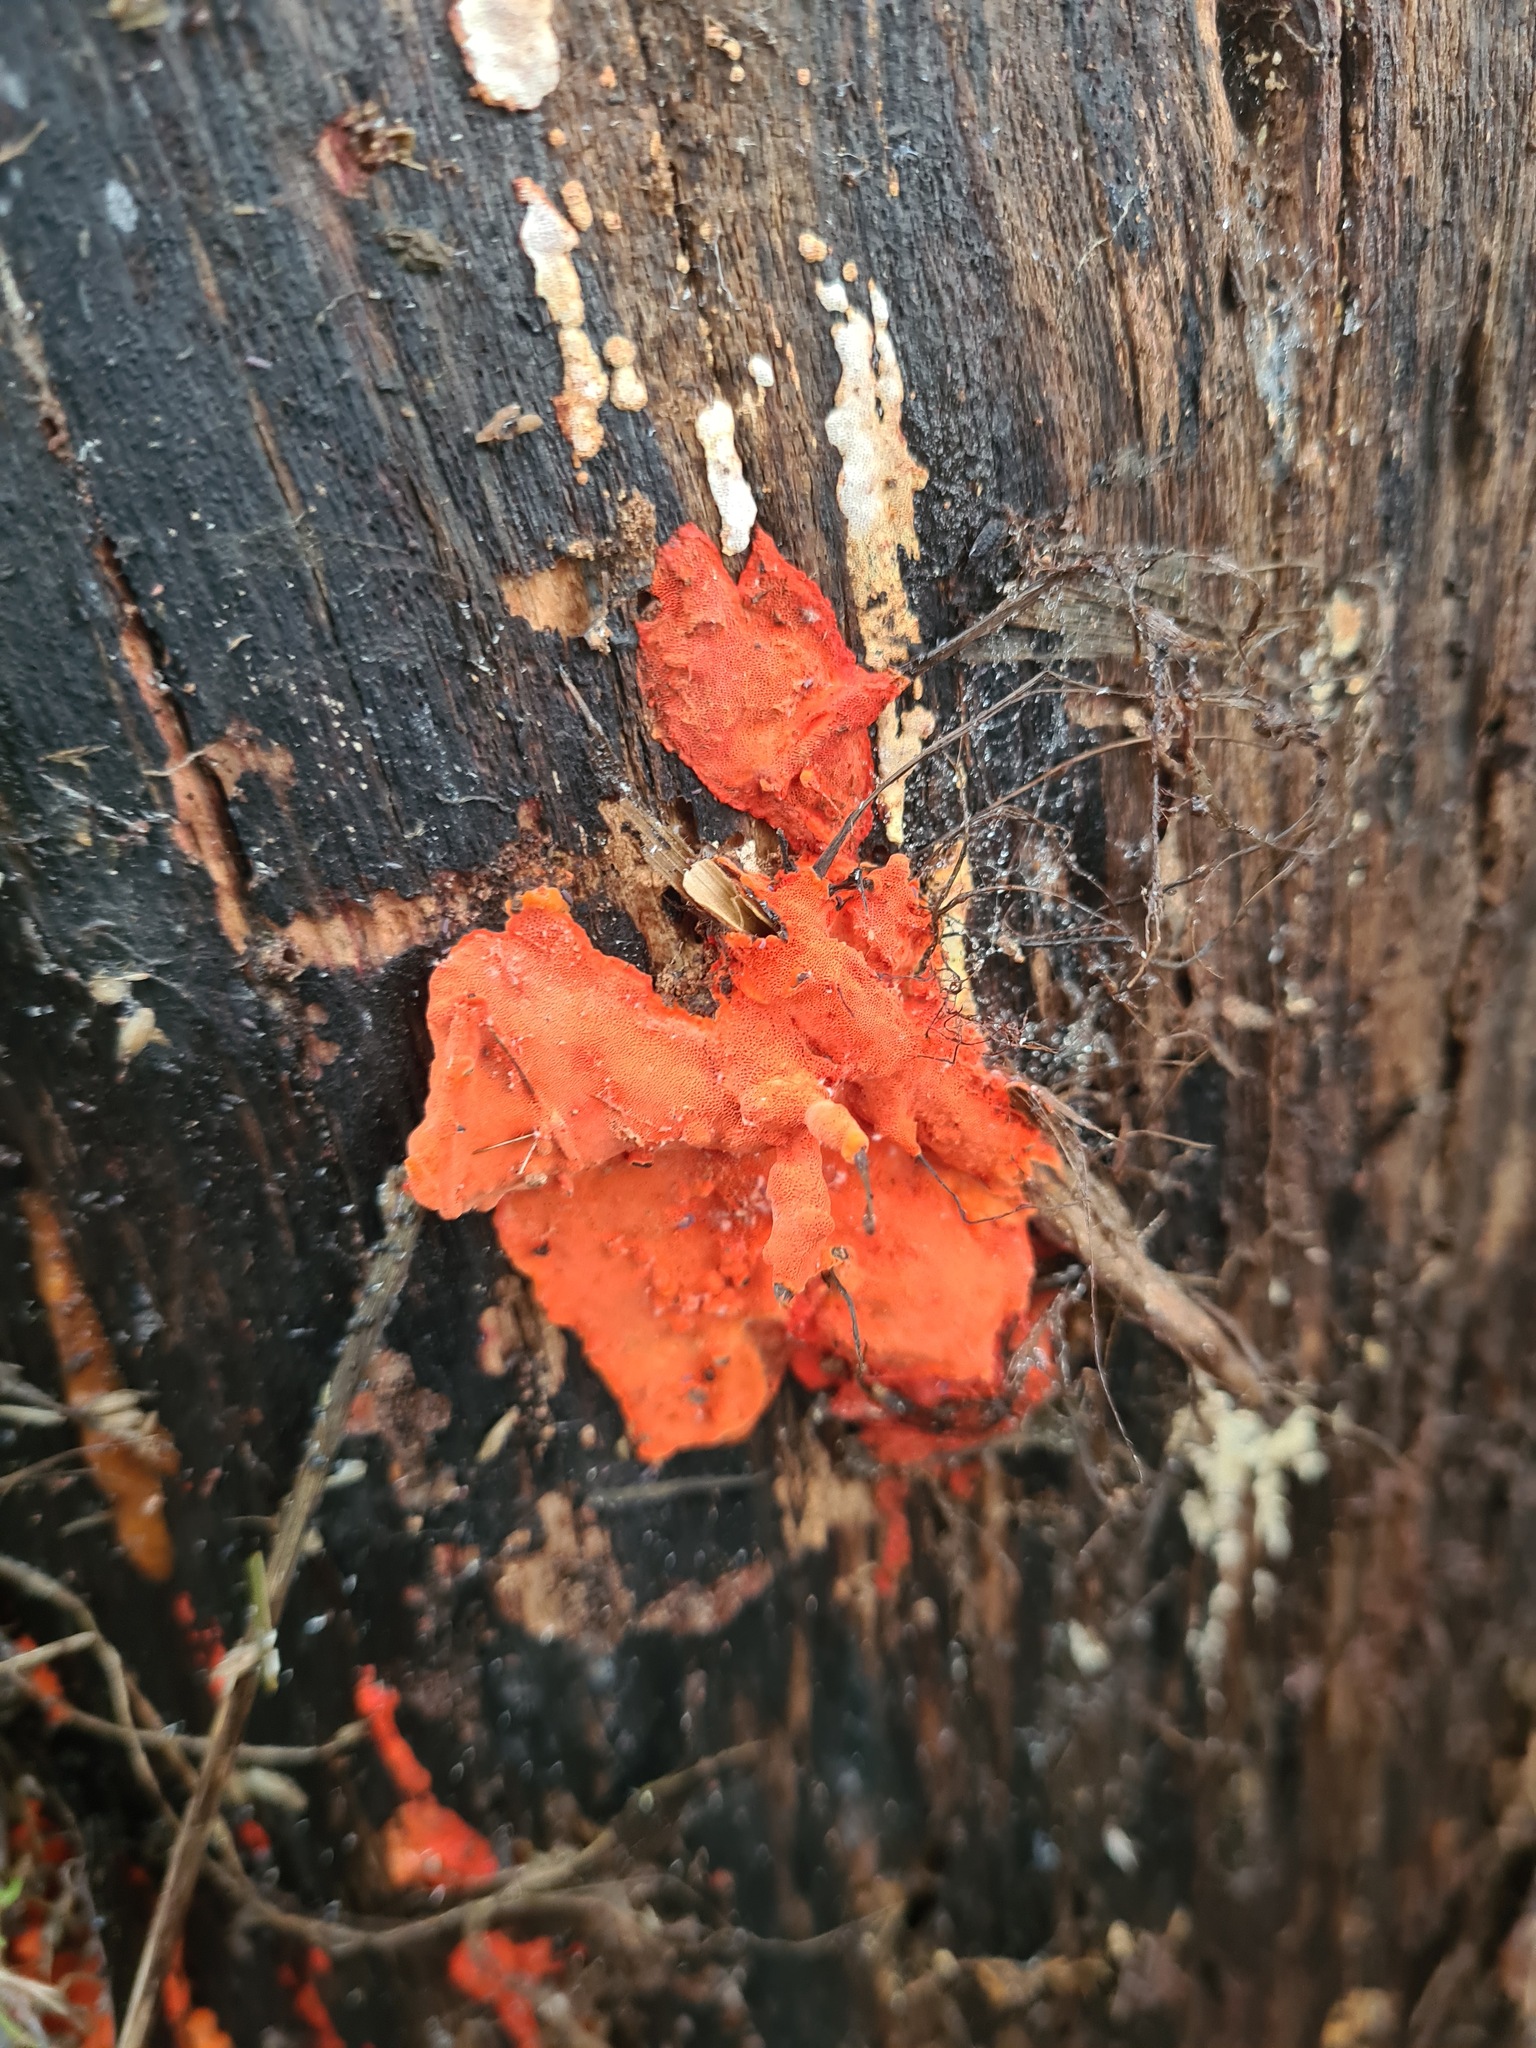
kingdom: Fungi
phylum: Basidiomycota
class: Agaricomycetes
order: Polyporales
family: Polyporaceae
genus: Trametes
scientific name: Trametes coccinea
